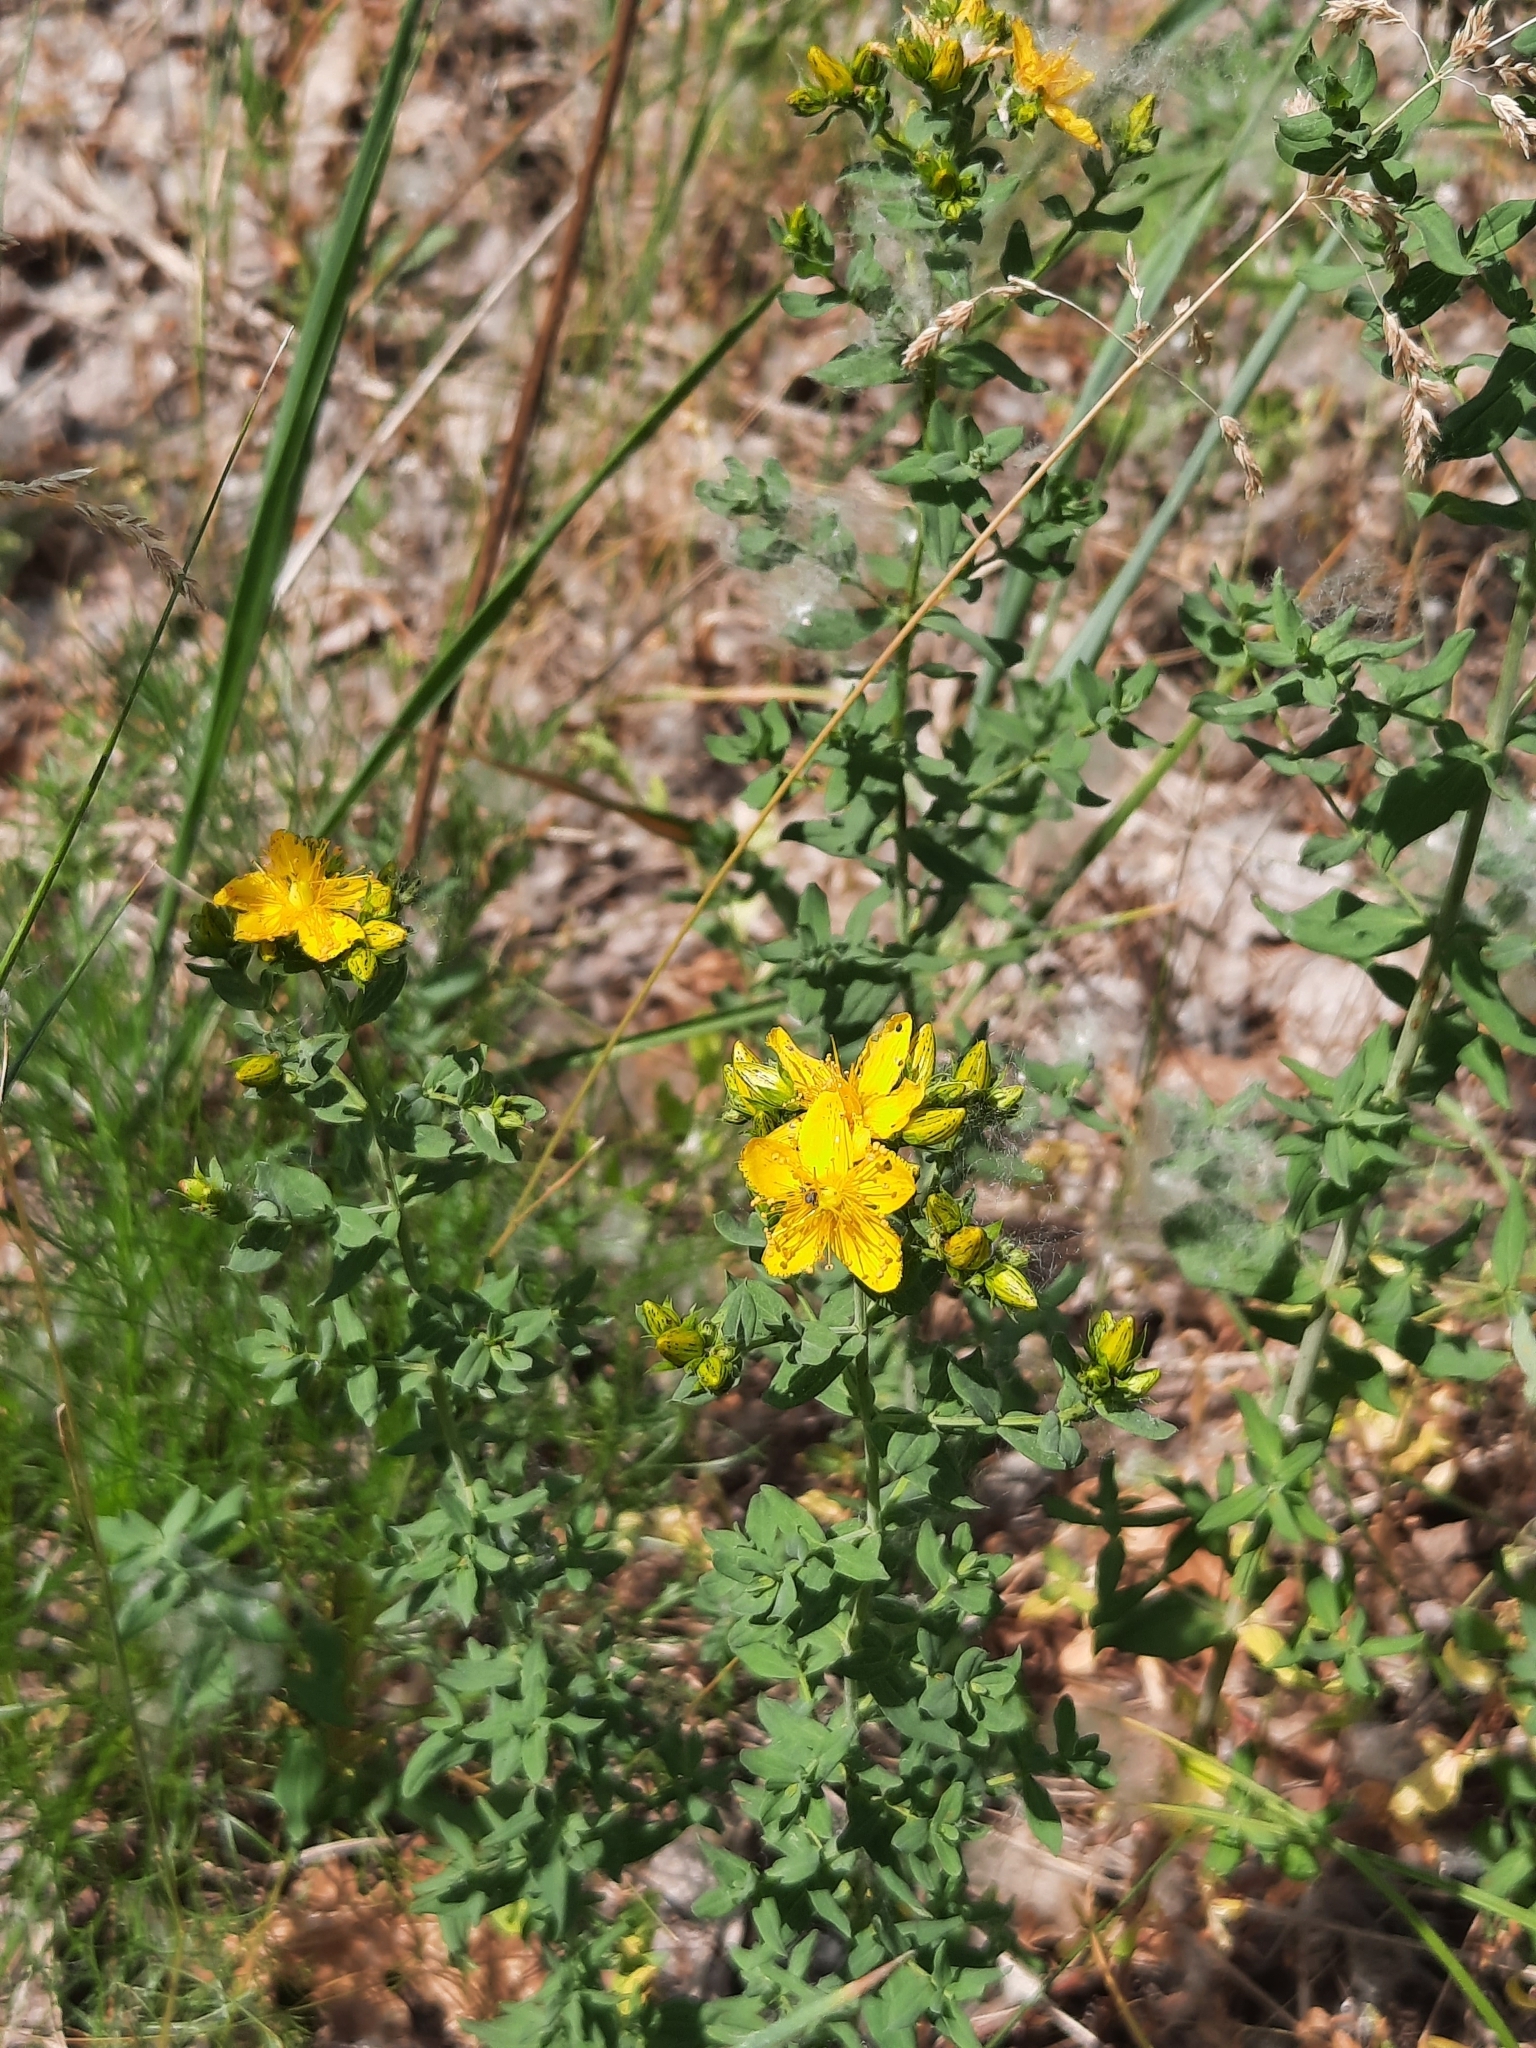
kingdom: Plantae
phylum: Tracheophyta
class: Magnoliopsida
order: Malpighiales
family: Hypericaceae
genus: Hypericum
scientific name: Hypericum maculatum
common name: Imperforate st. john's-wort
